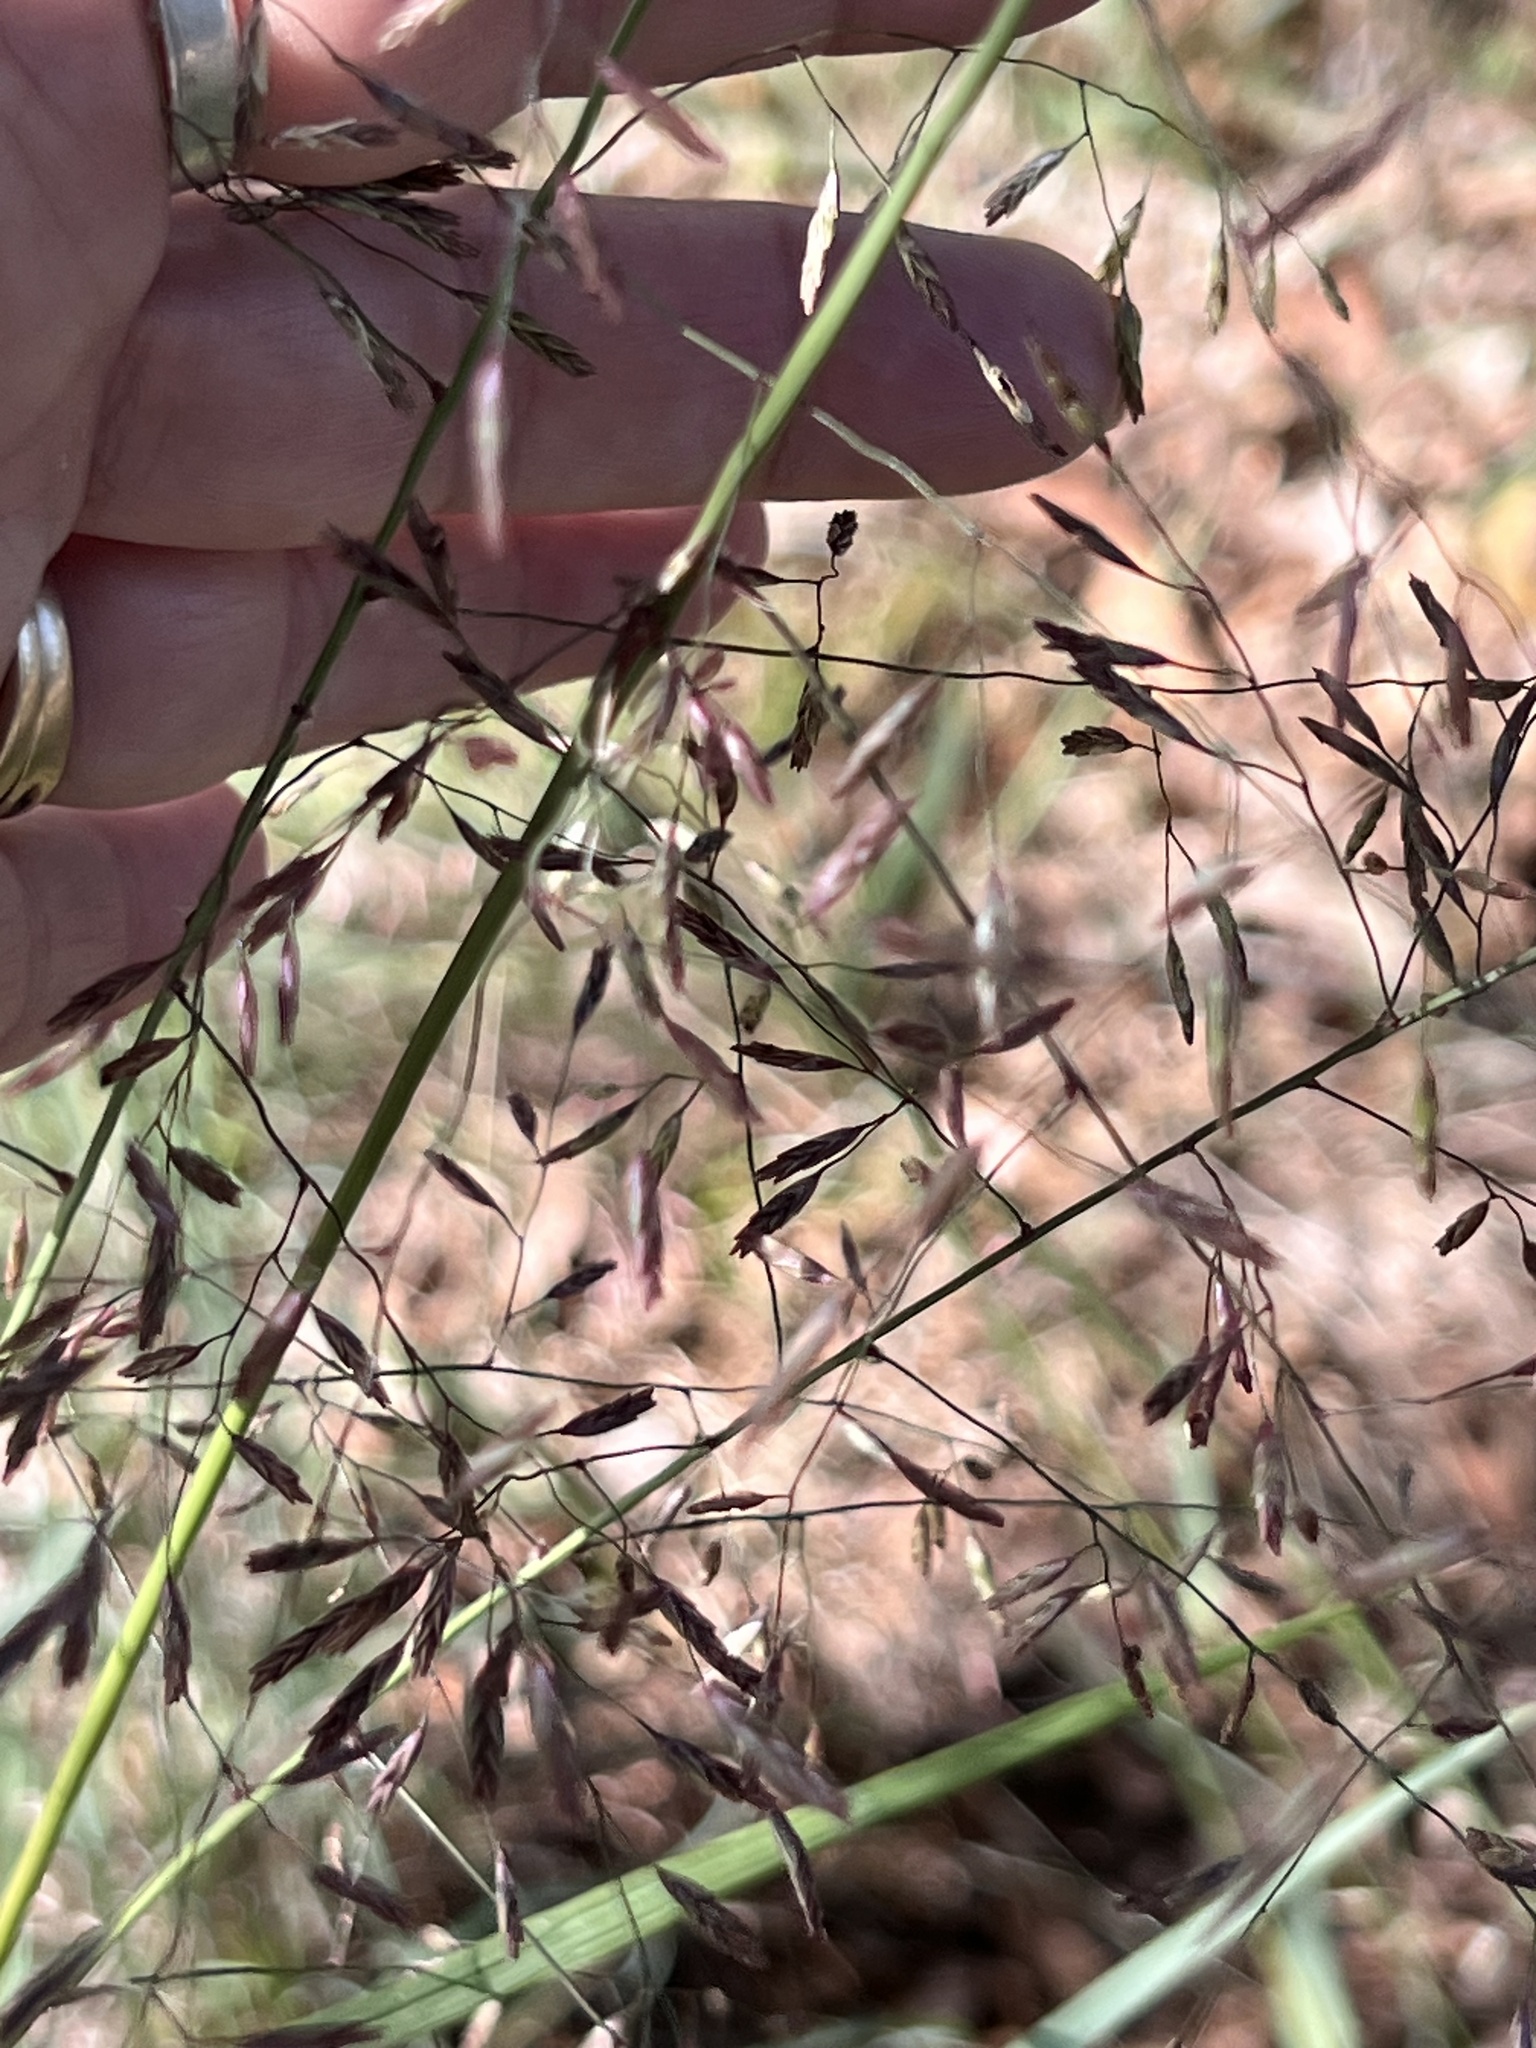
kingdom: Plantae
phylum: Tracheophyta
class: Liliopsida
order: Poales
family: Poaceae
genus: Tridens
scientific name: Tridens chapmanii
